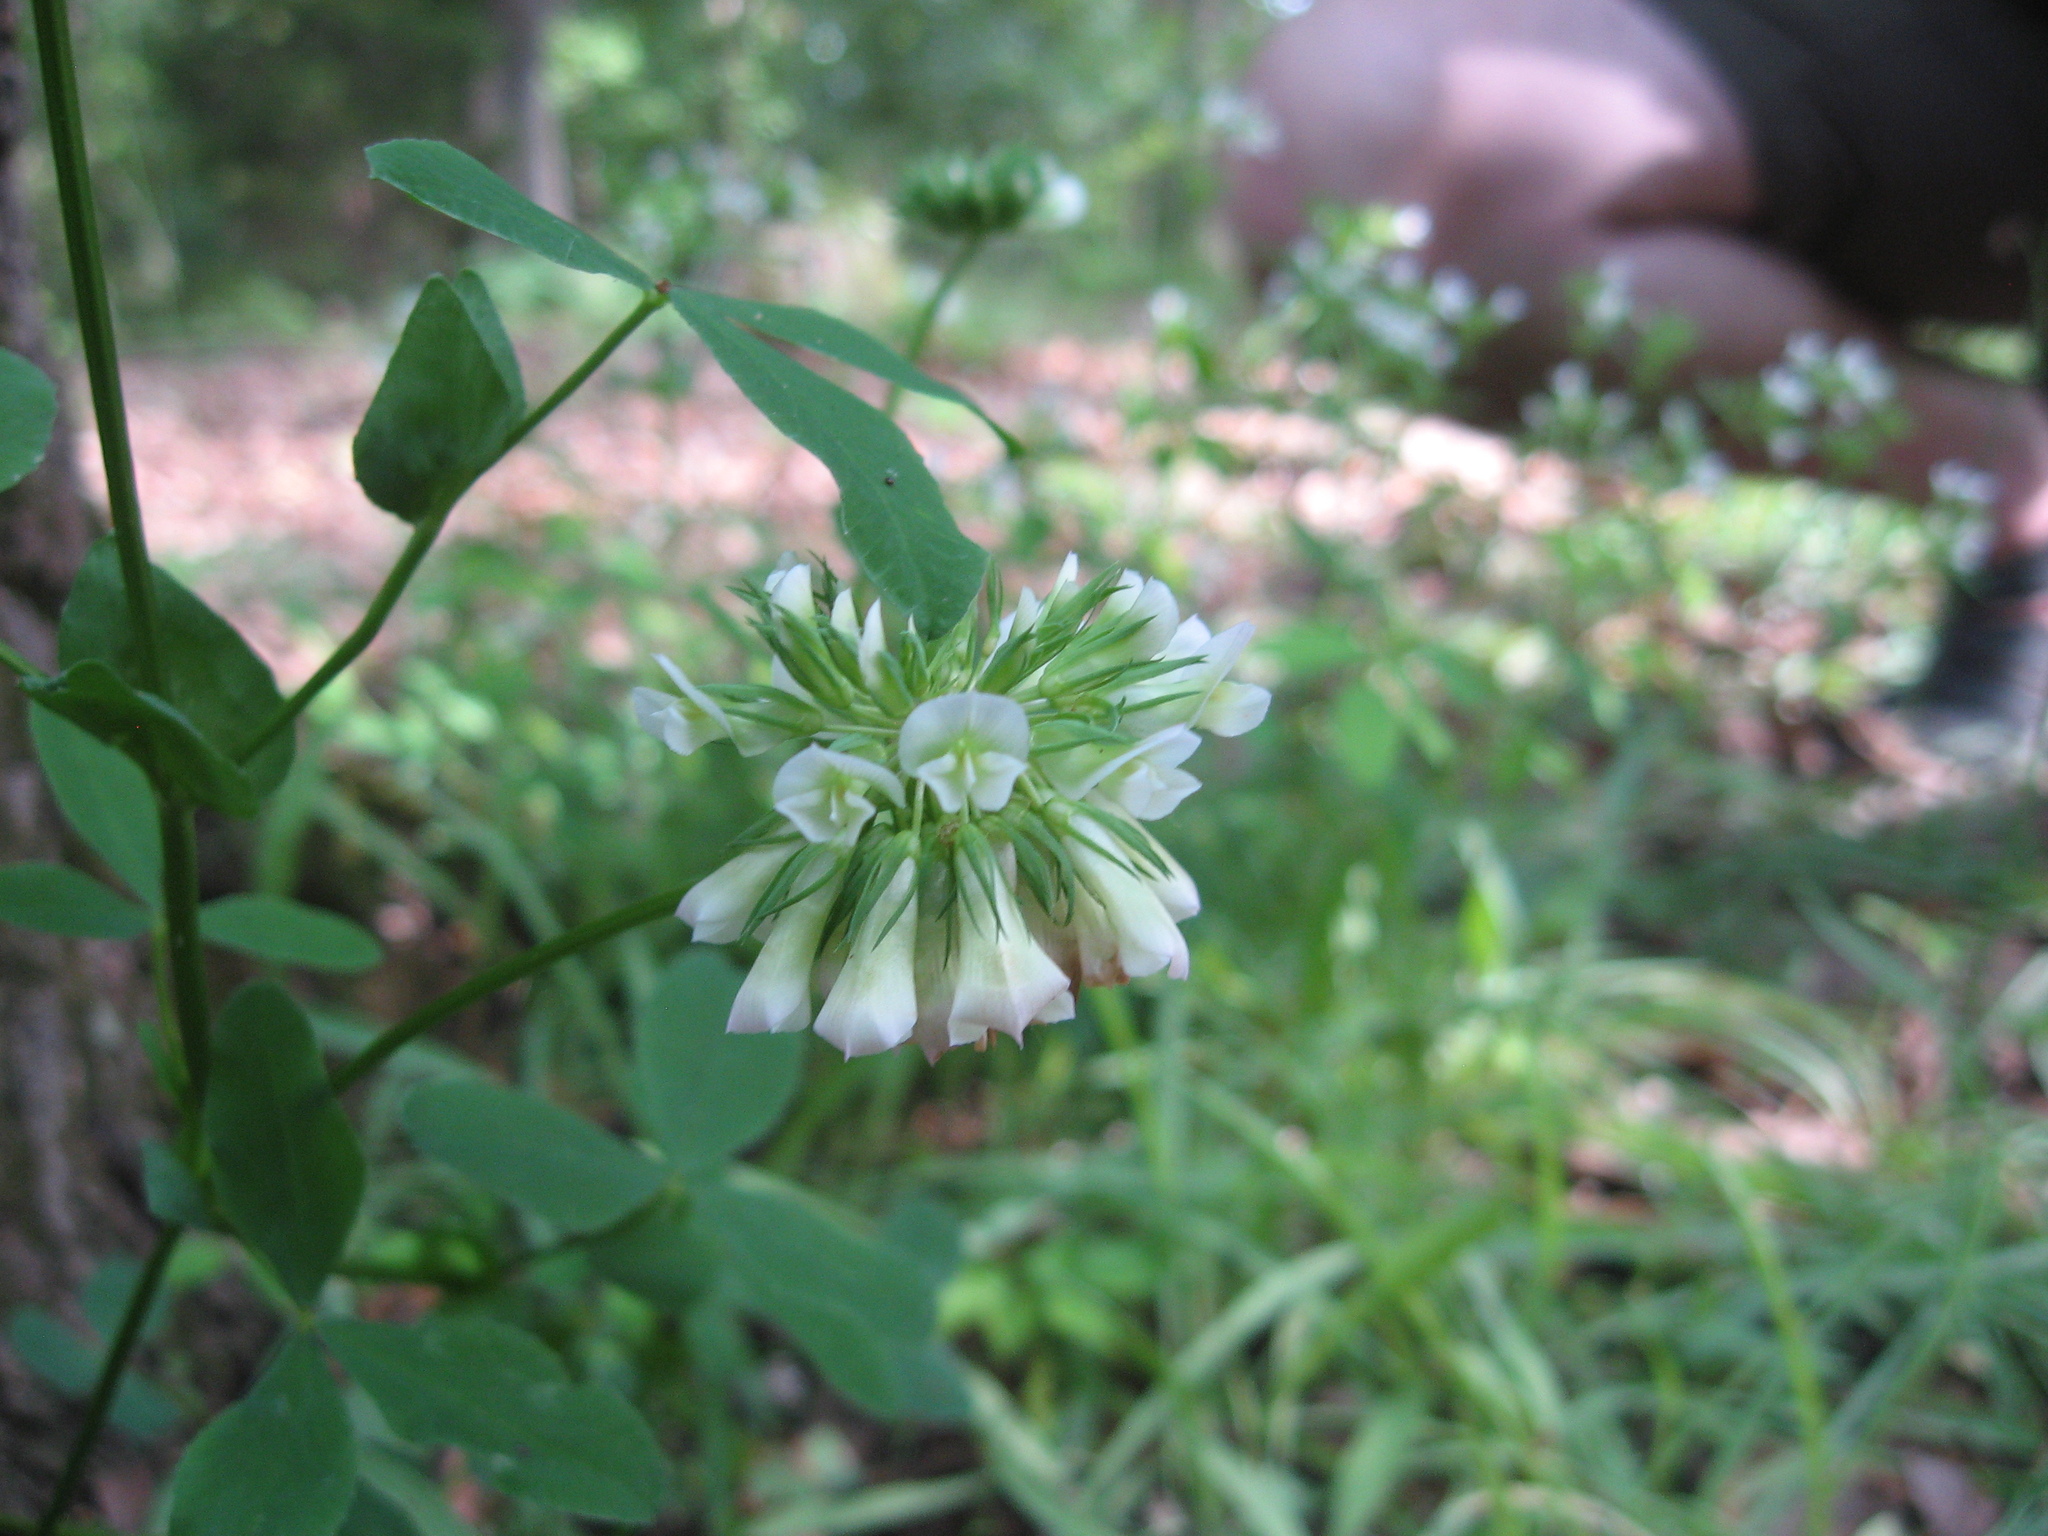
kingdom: Plantae
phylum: Tracheophyta
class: Magnoliopsida
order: Fabales
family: Fabaceae
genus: Trifolium
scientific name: Trifolium reflexum
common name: Buffalo clover
